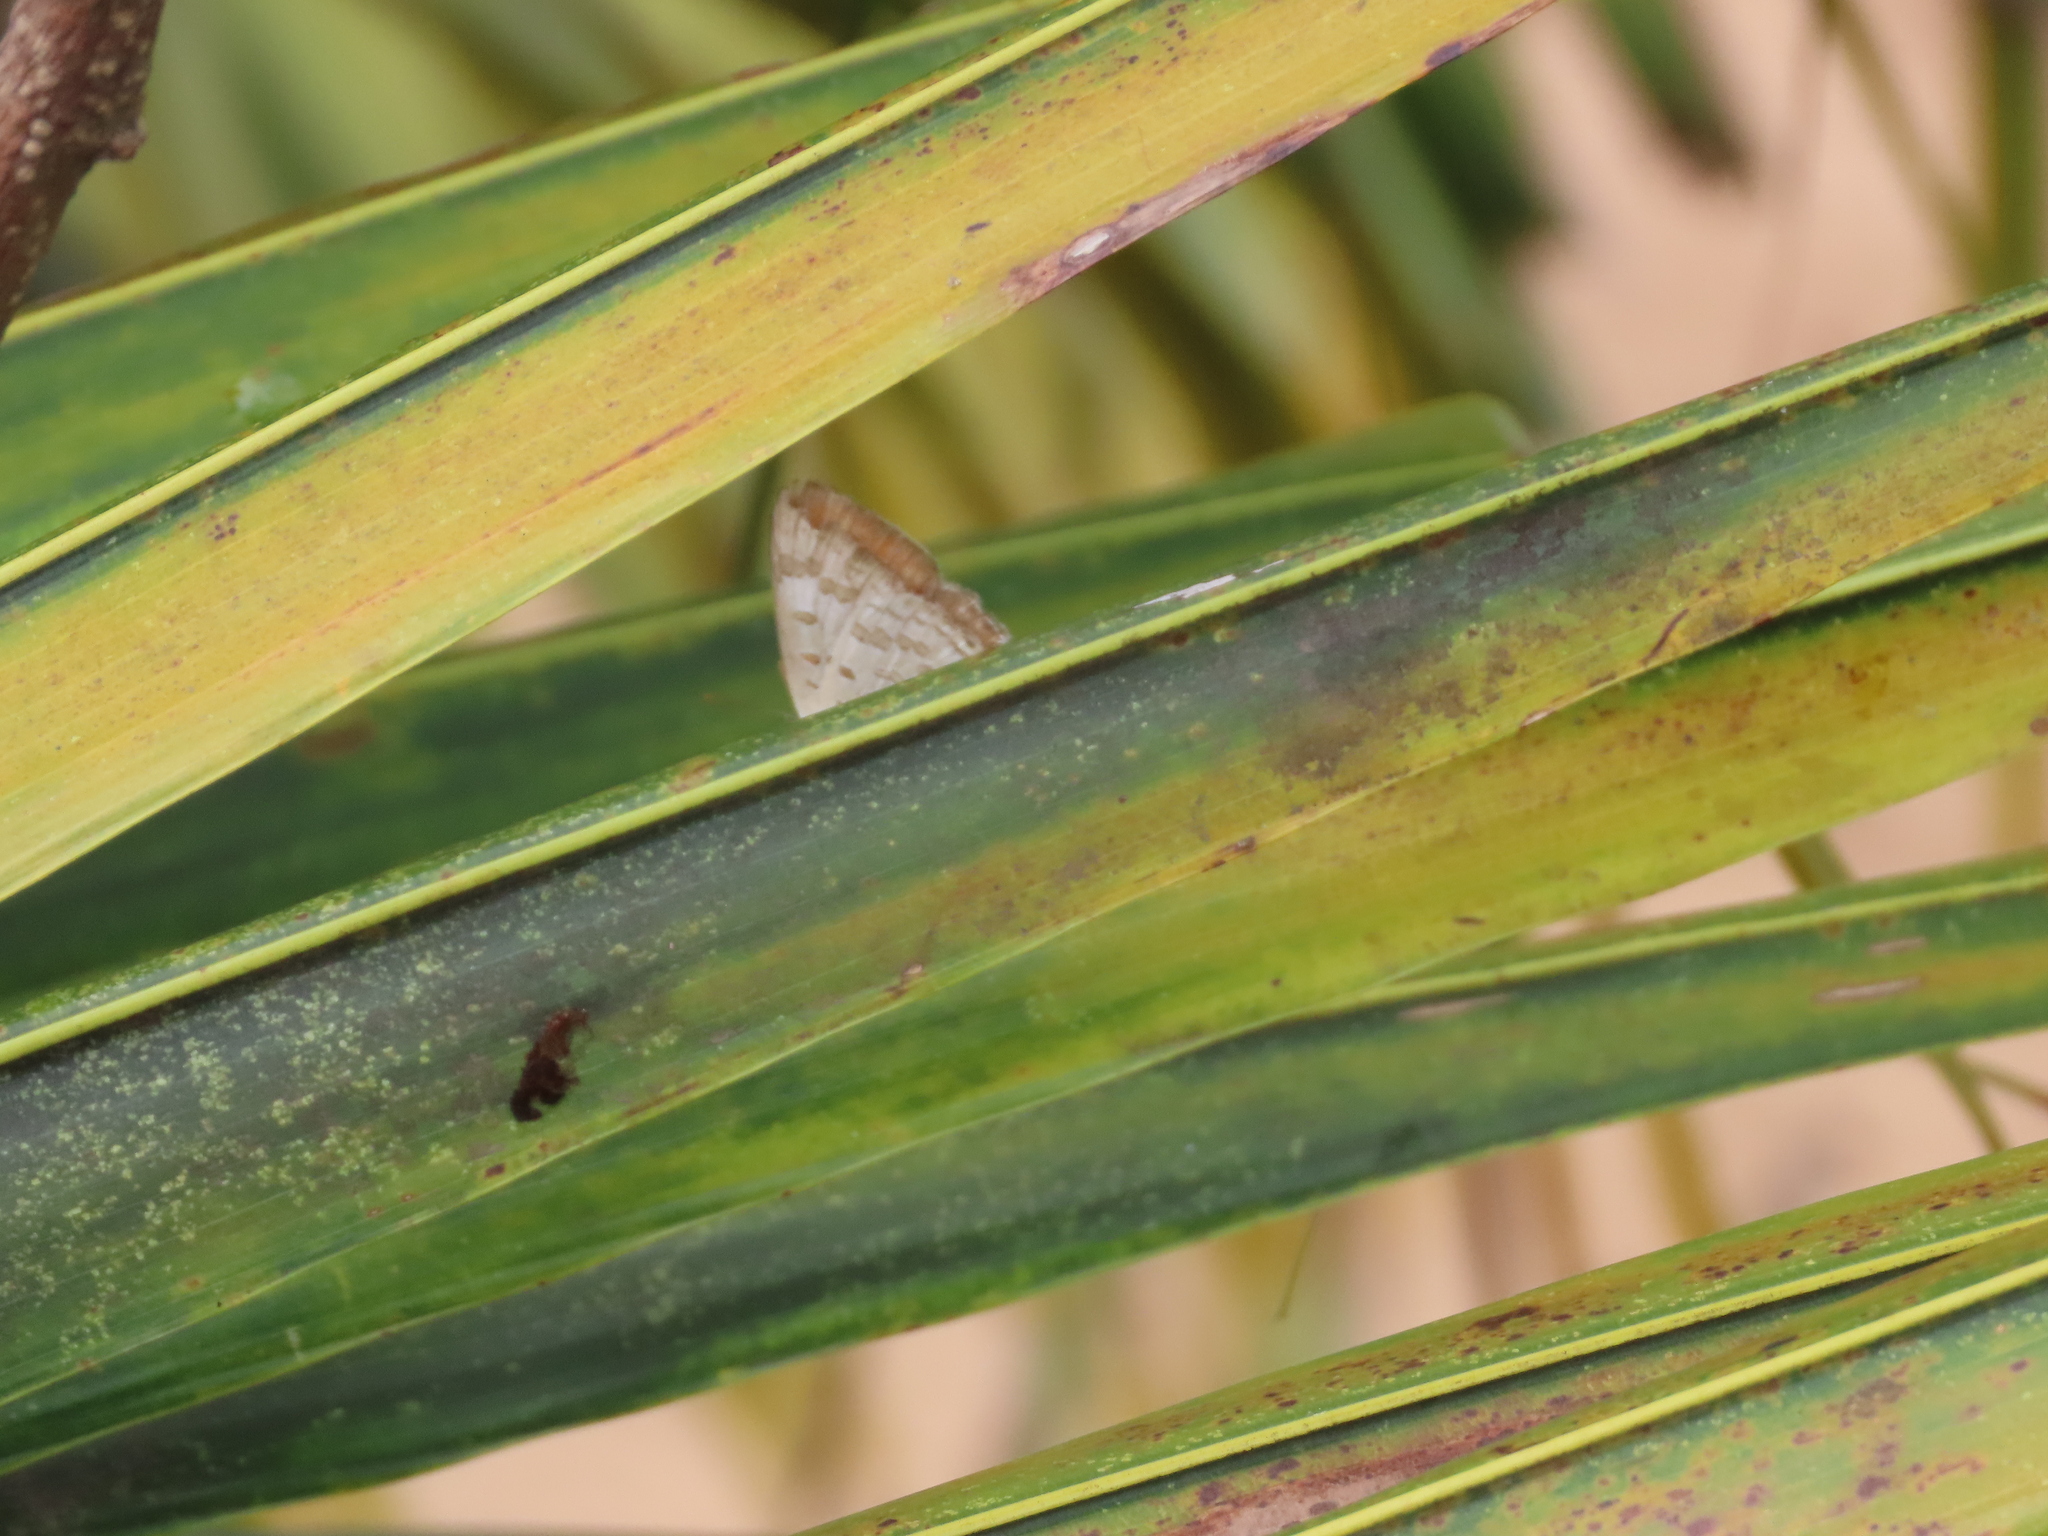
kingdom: Animalia
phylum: Arthropoda
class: Insecta
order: Lepidoptera
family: Lycaenidae
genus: Zesius
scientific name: Zesius chrysomallus
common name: Redspot
